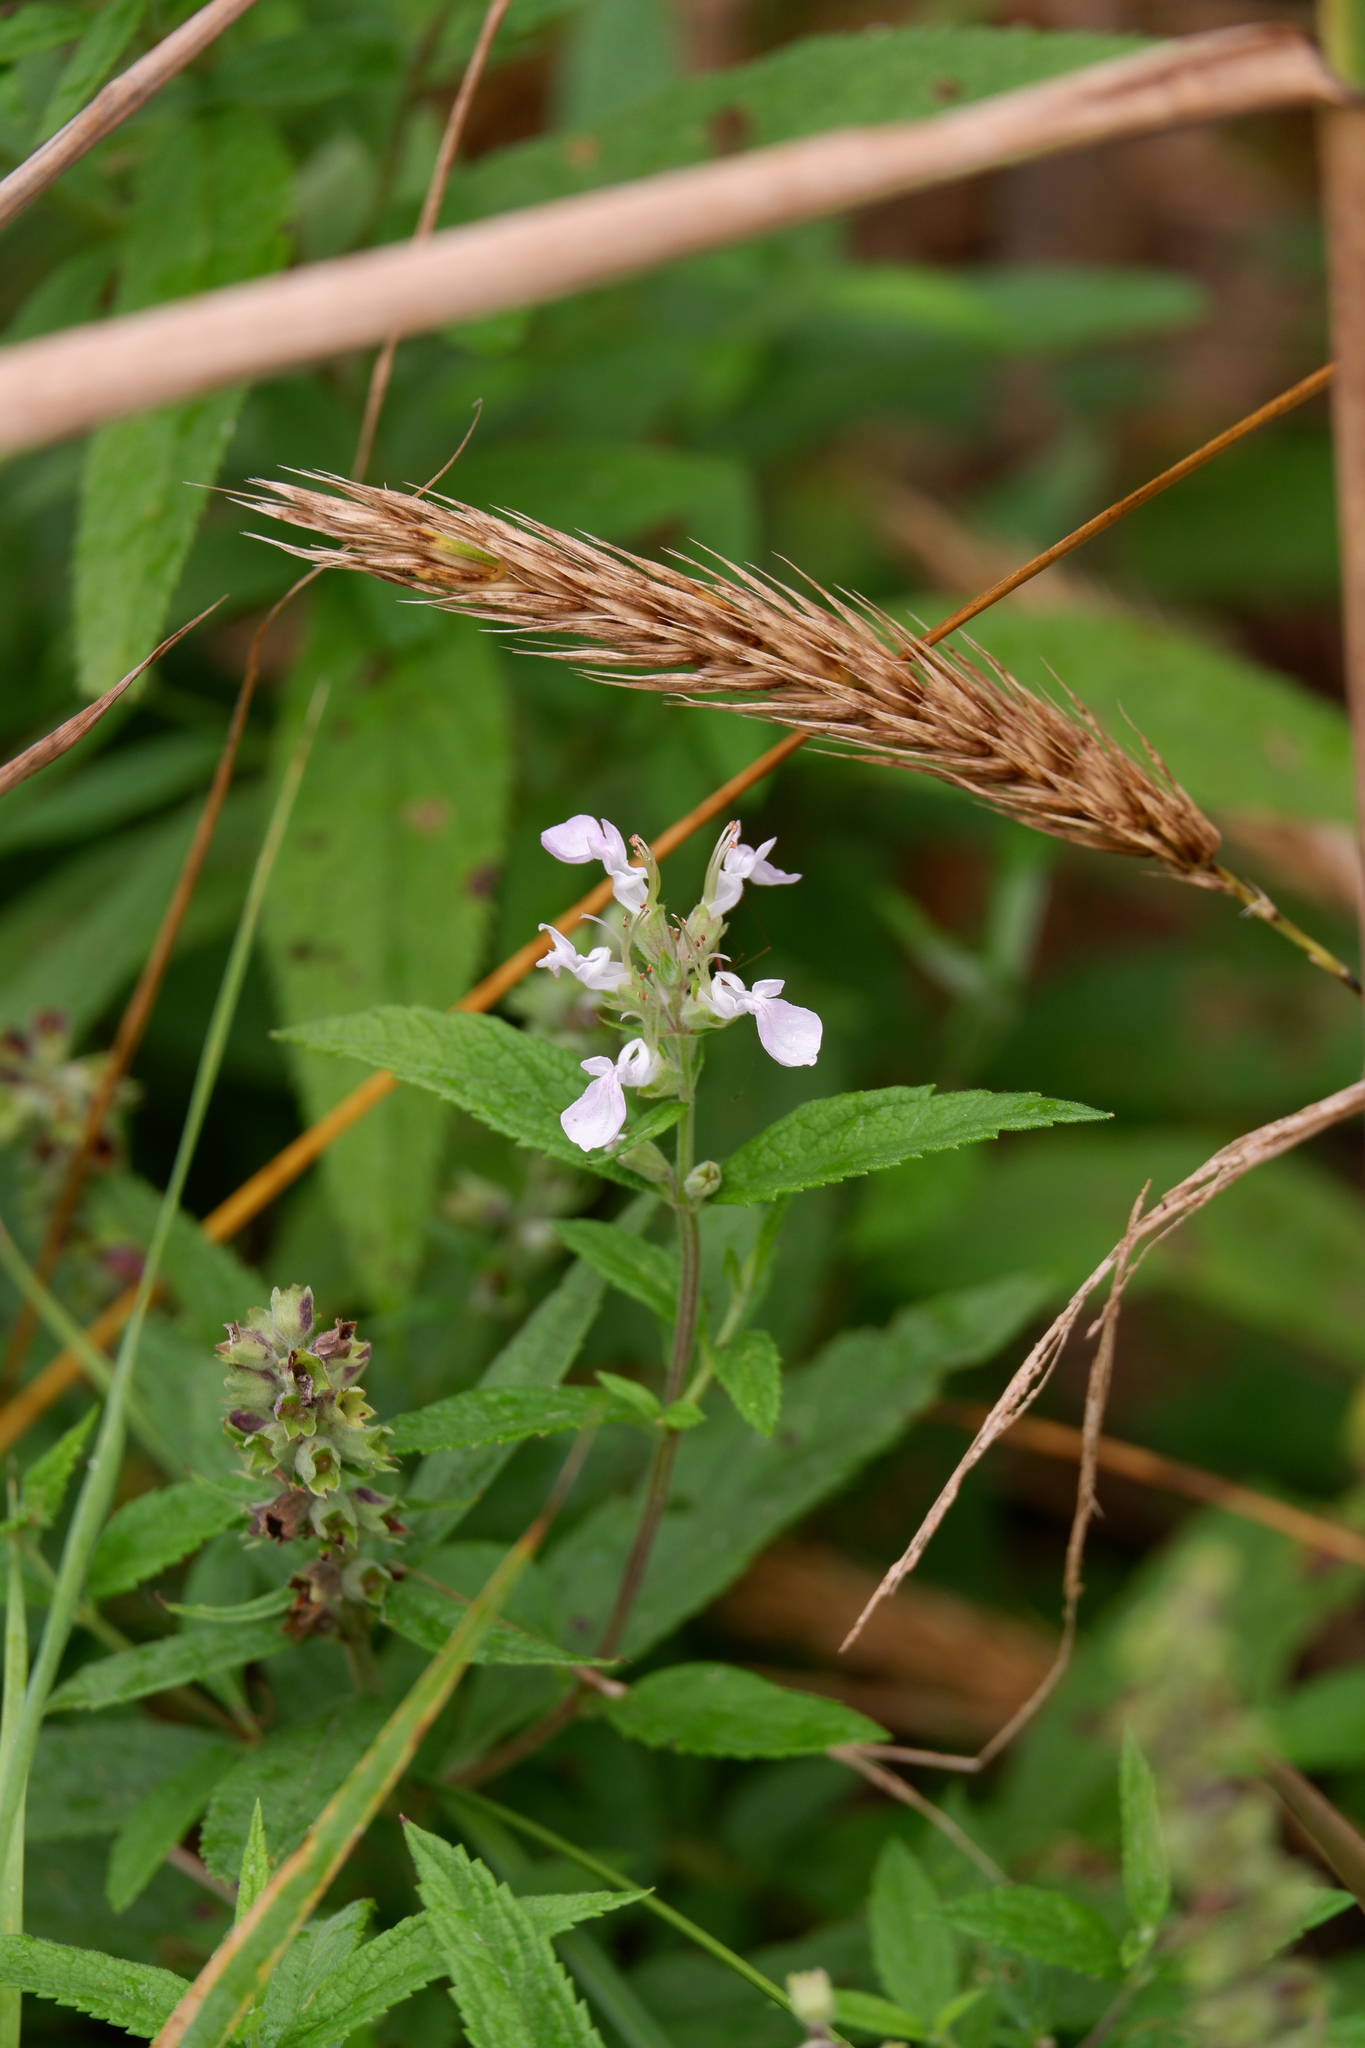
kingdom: Plantae
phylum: Tracheophyta
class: Magnoliopsida
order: Lamiales
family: Lamiaceae
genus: Teucrium
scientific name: Teucrium canadense
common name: American germander
